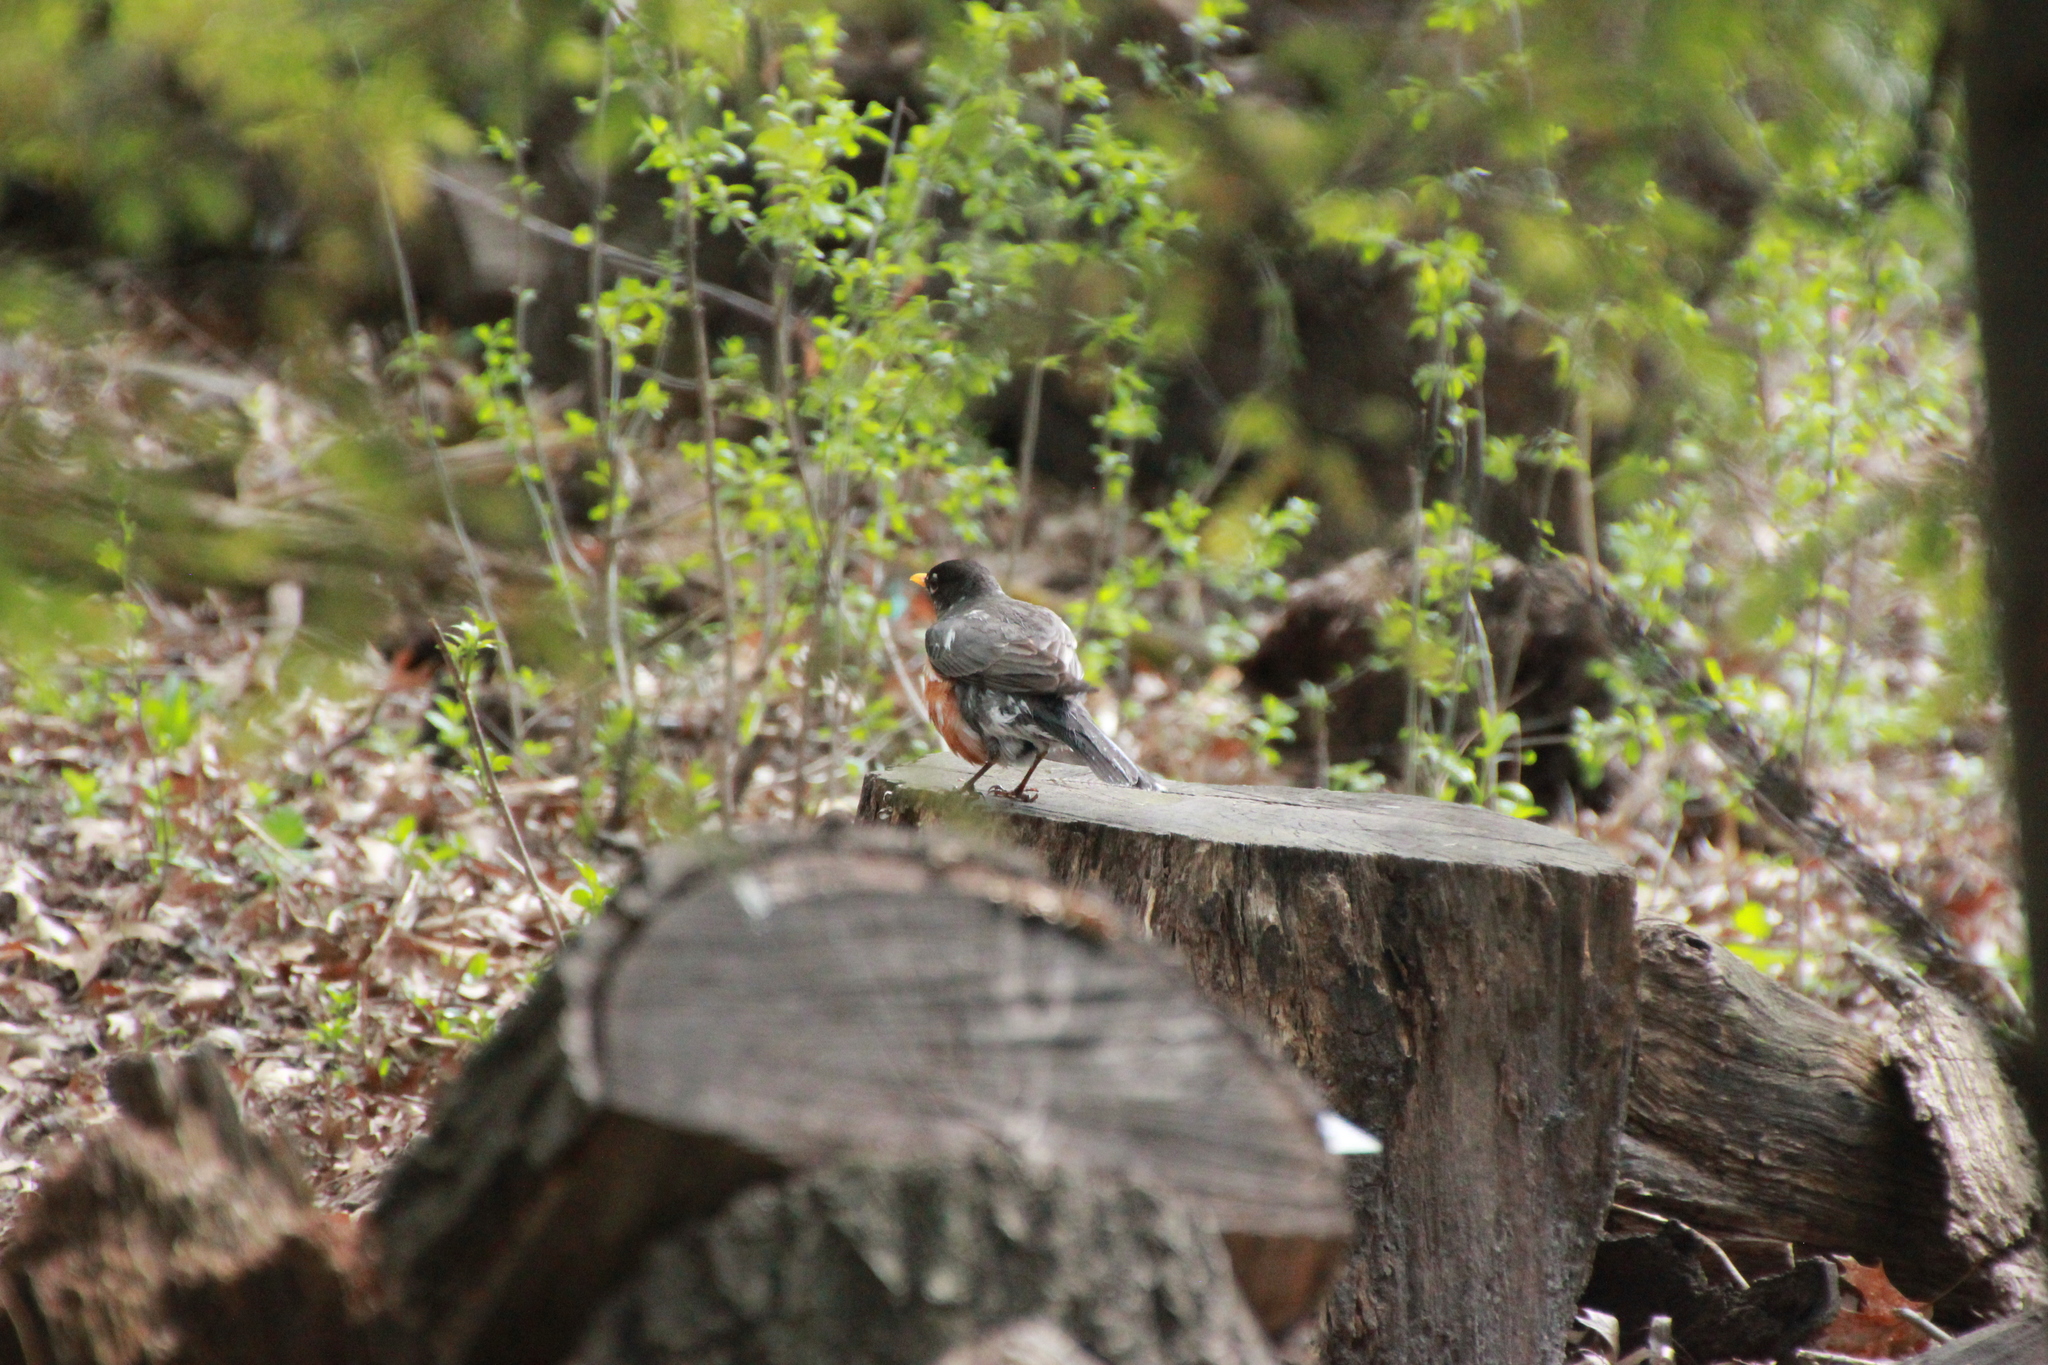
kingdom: Animalia
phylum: Chordata
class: Aves
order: Passeriformes
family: Turdidae
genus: Turdus
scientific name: Turdus migratorius
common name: American robin
